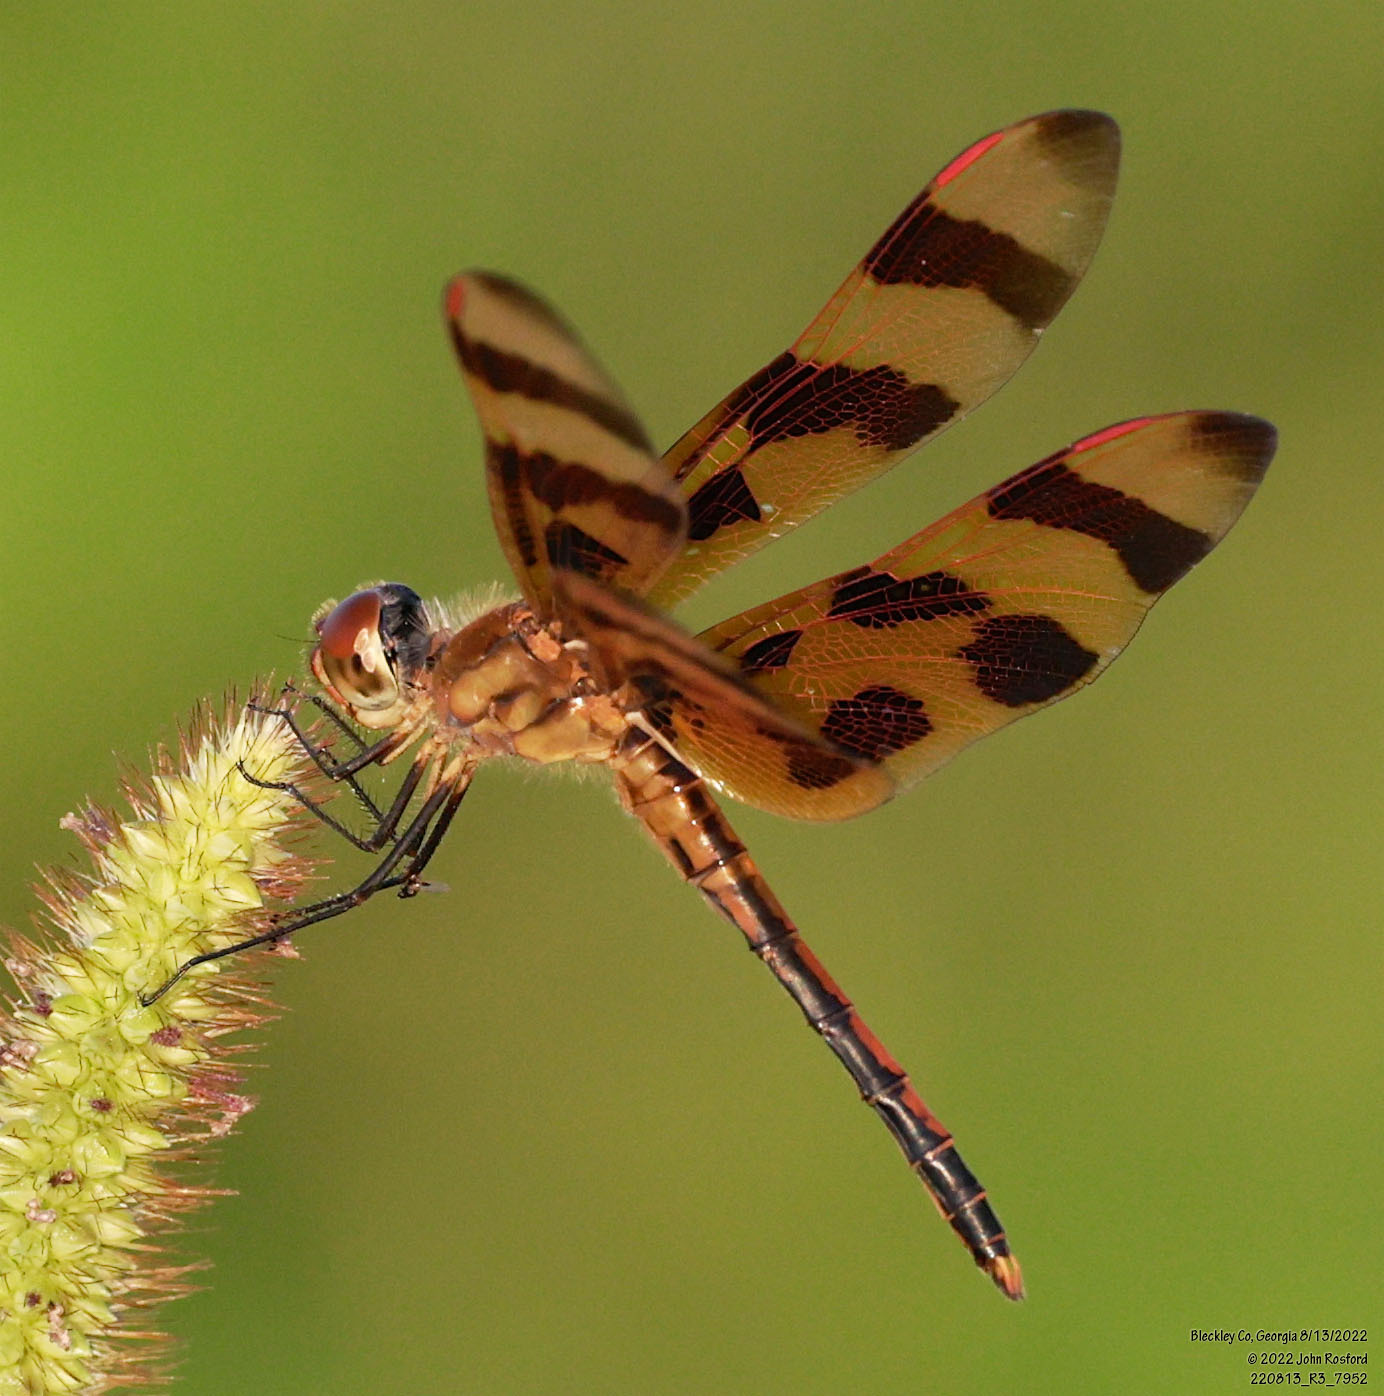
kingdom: Animalia
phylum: Arthropoda
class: Insecta
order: Odonata
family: Libellulidae
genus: Celithemis
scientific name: Celithemis eponina
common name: Halloween pennant
